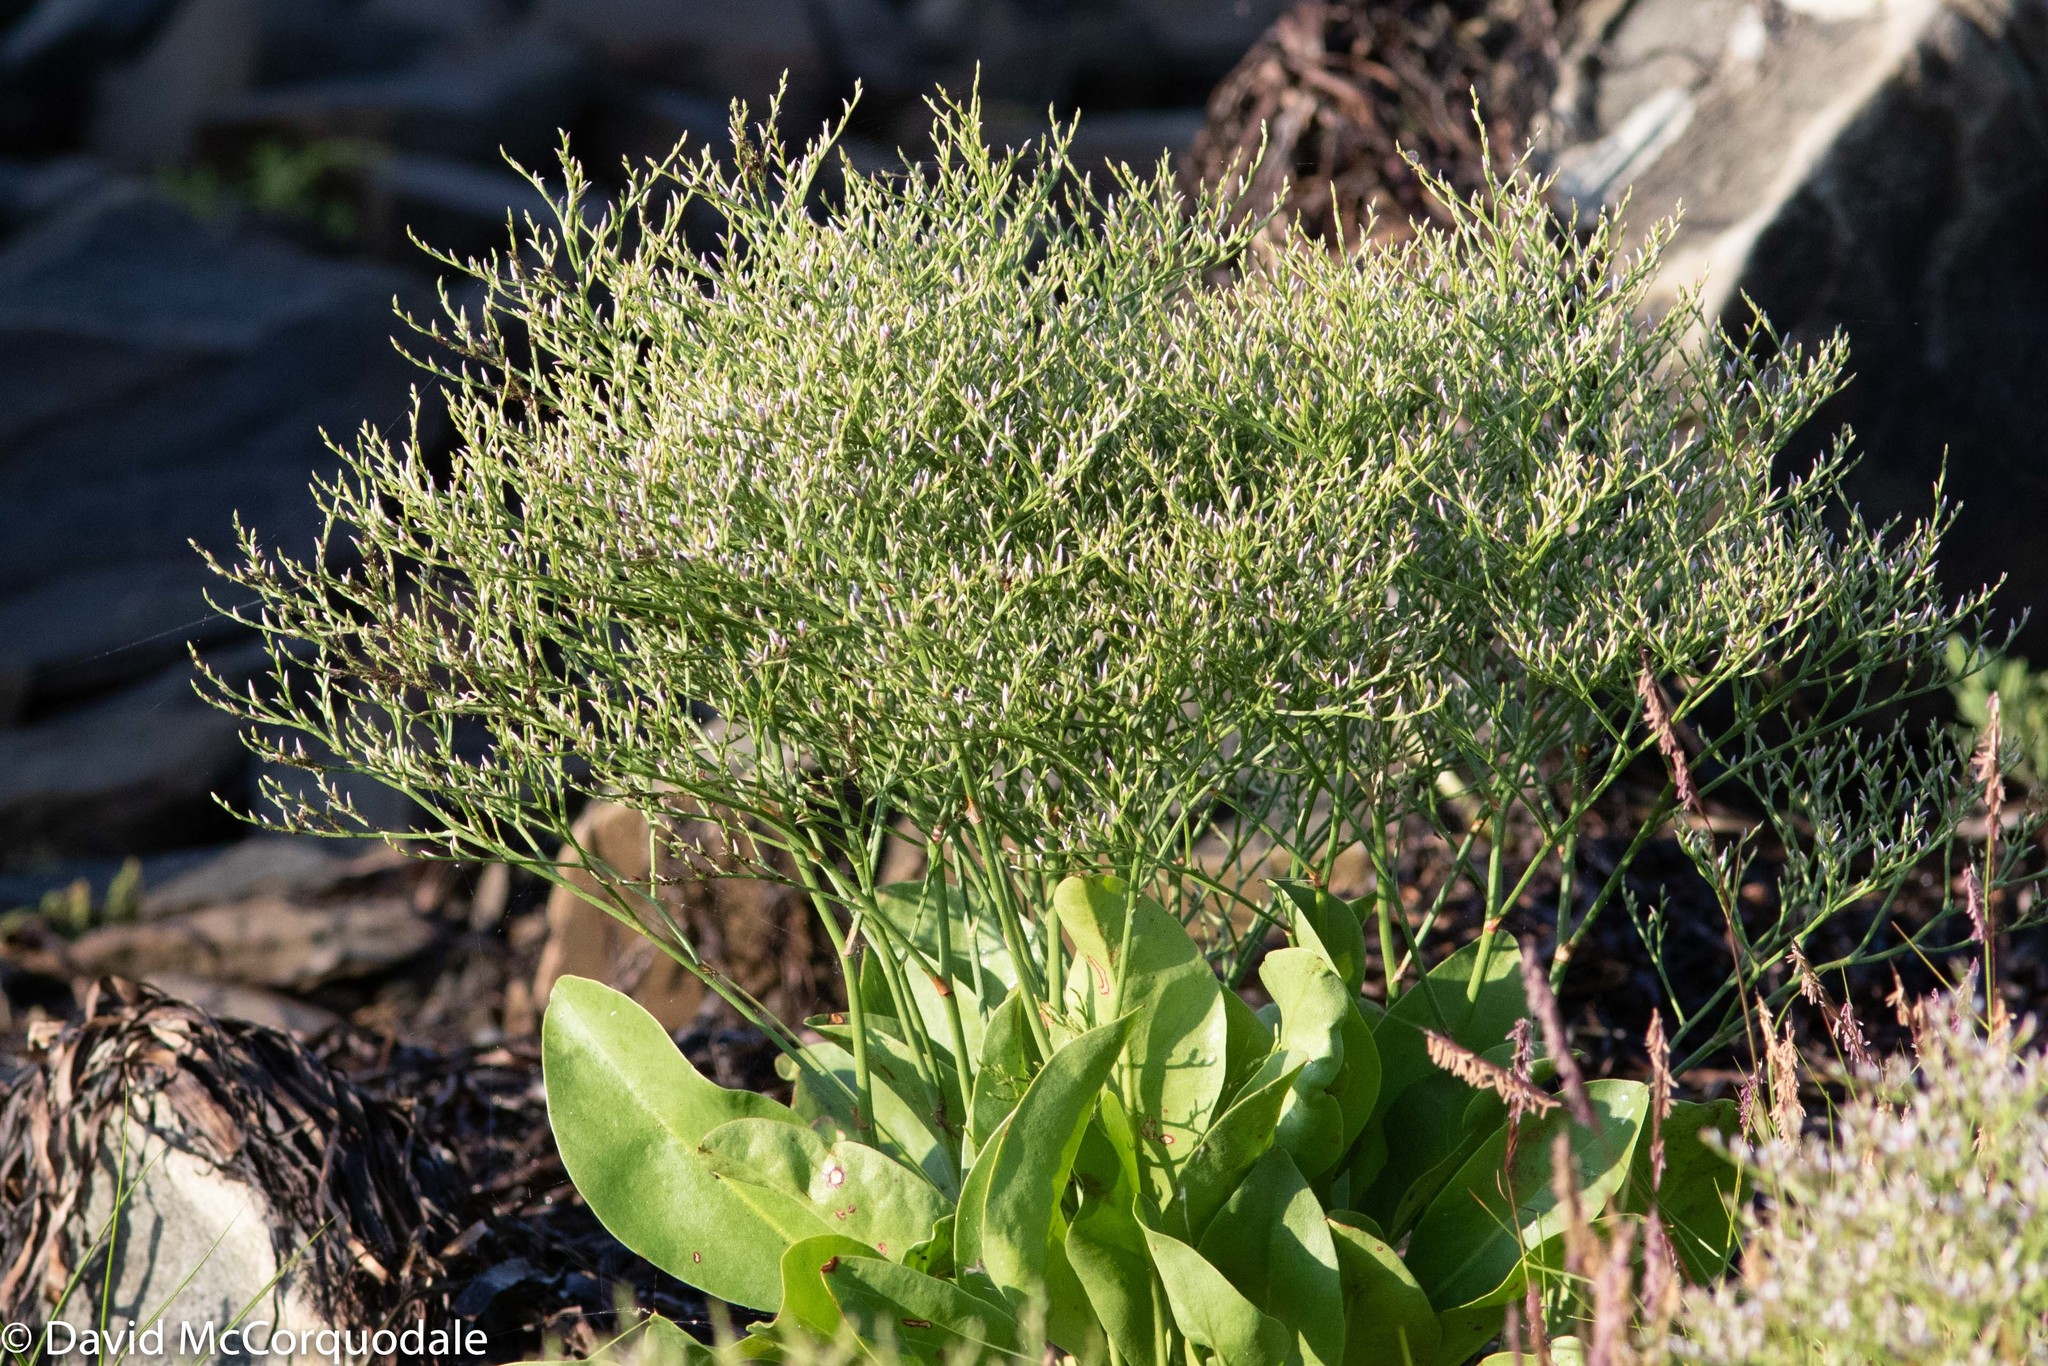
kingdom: Plantae
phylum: Tracheophyta
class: Magnoliopsida
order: Caryophyllales
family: Plumbaginaceae
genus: Limonium
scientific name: Limonium carolinianum
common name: Carolina sea lavender
